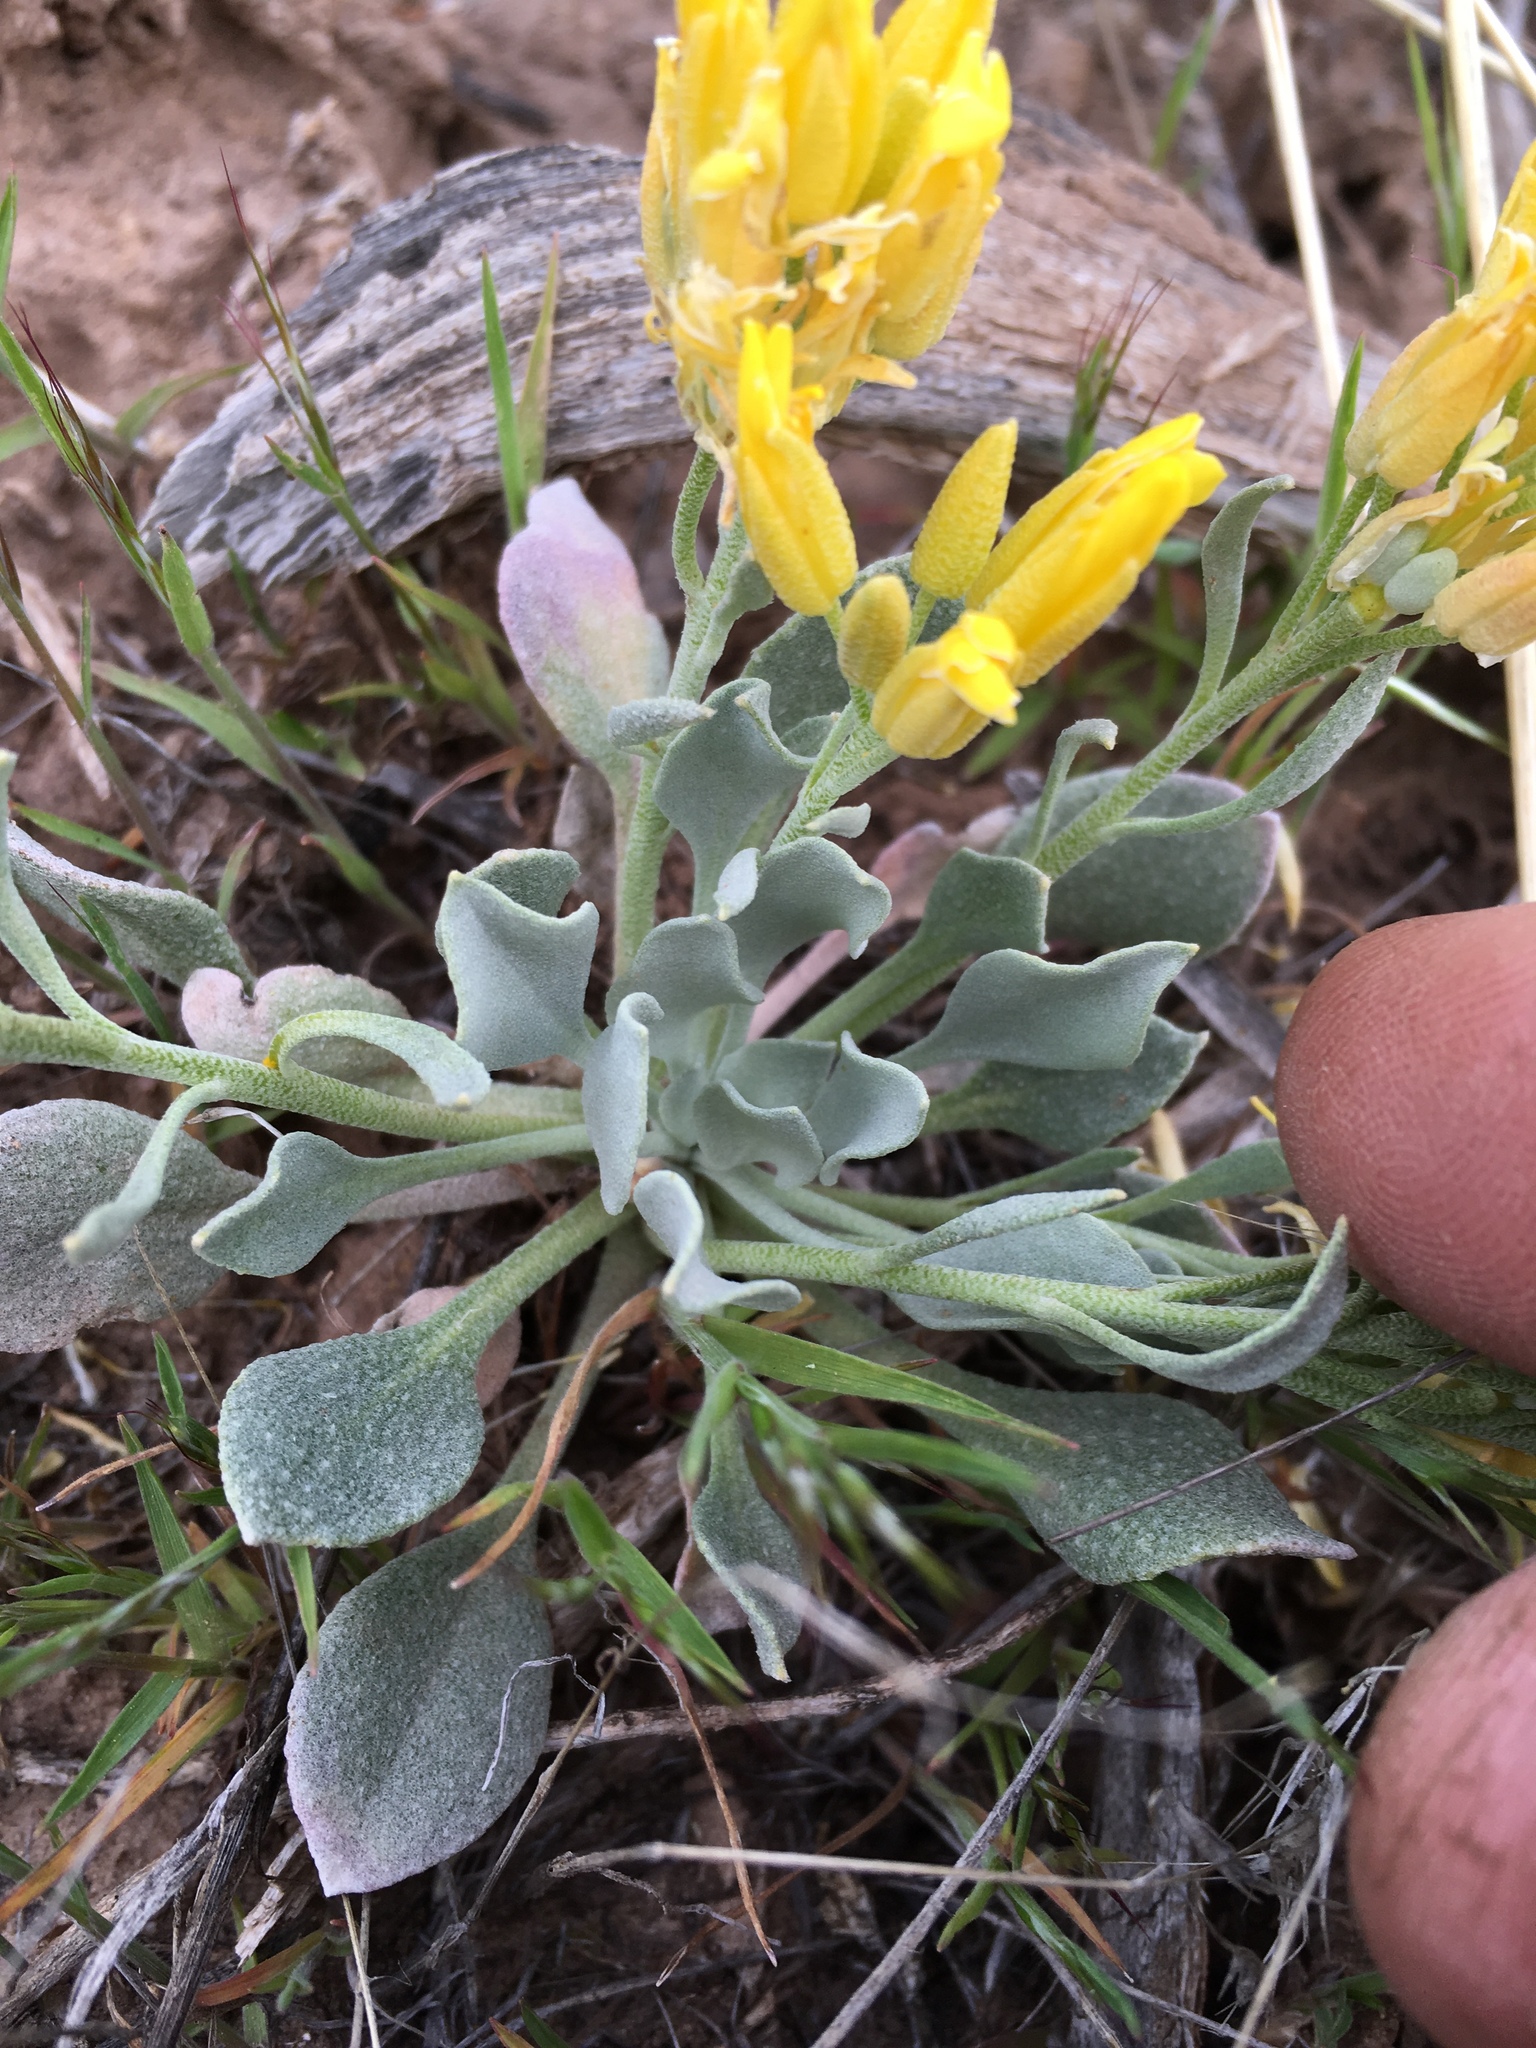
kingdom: Plantae
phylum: Tracheophyta
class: Magnoliopsida
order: Brassicales
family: Brassicaceae
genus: Physaria
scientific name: Physaria acutifolia
